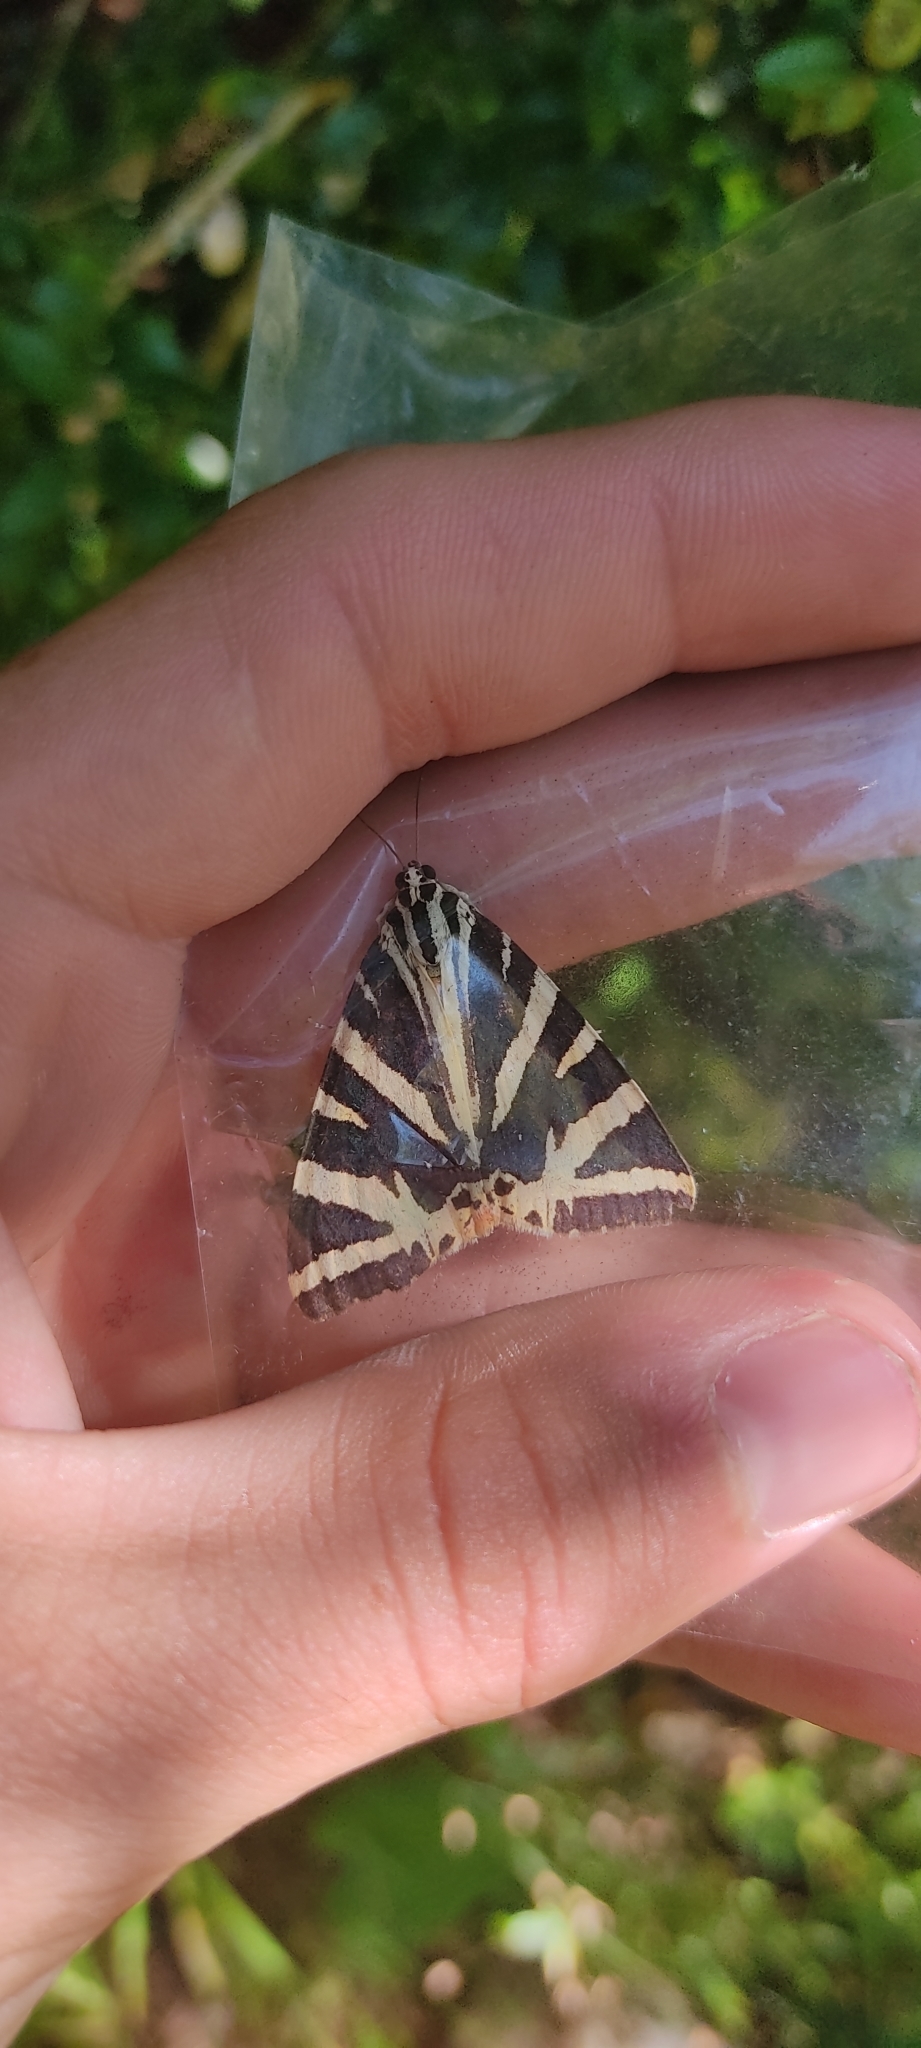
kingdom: Animalia
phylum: Arthropoda
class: Insecta
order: Lepidoptera
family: Erebidae
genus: Euplagia
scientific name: Euplagia quadripunctaria
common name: Jersey tiger
